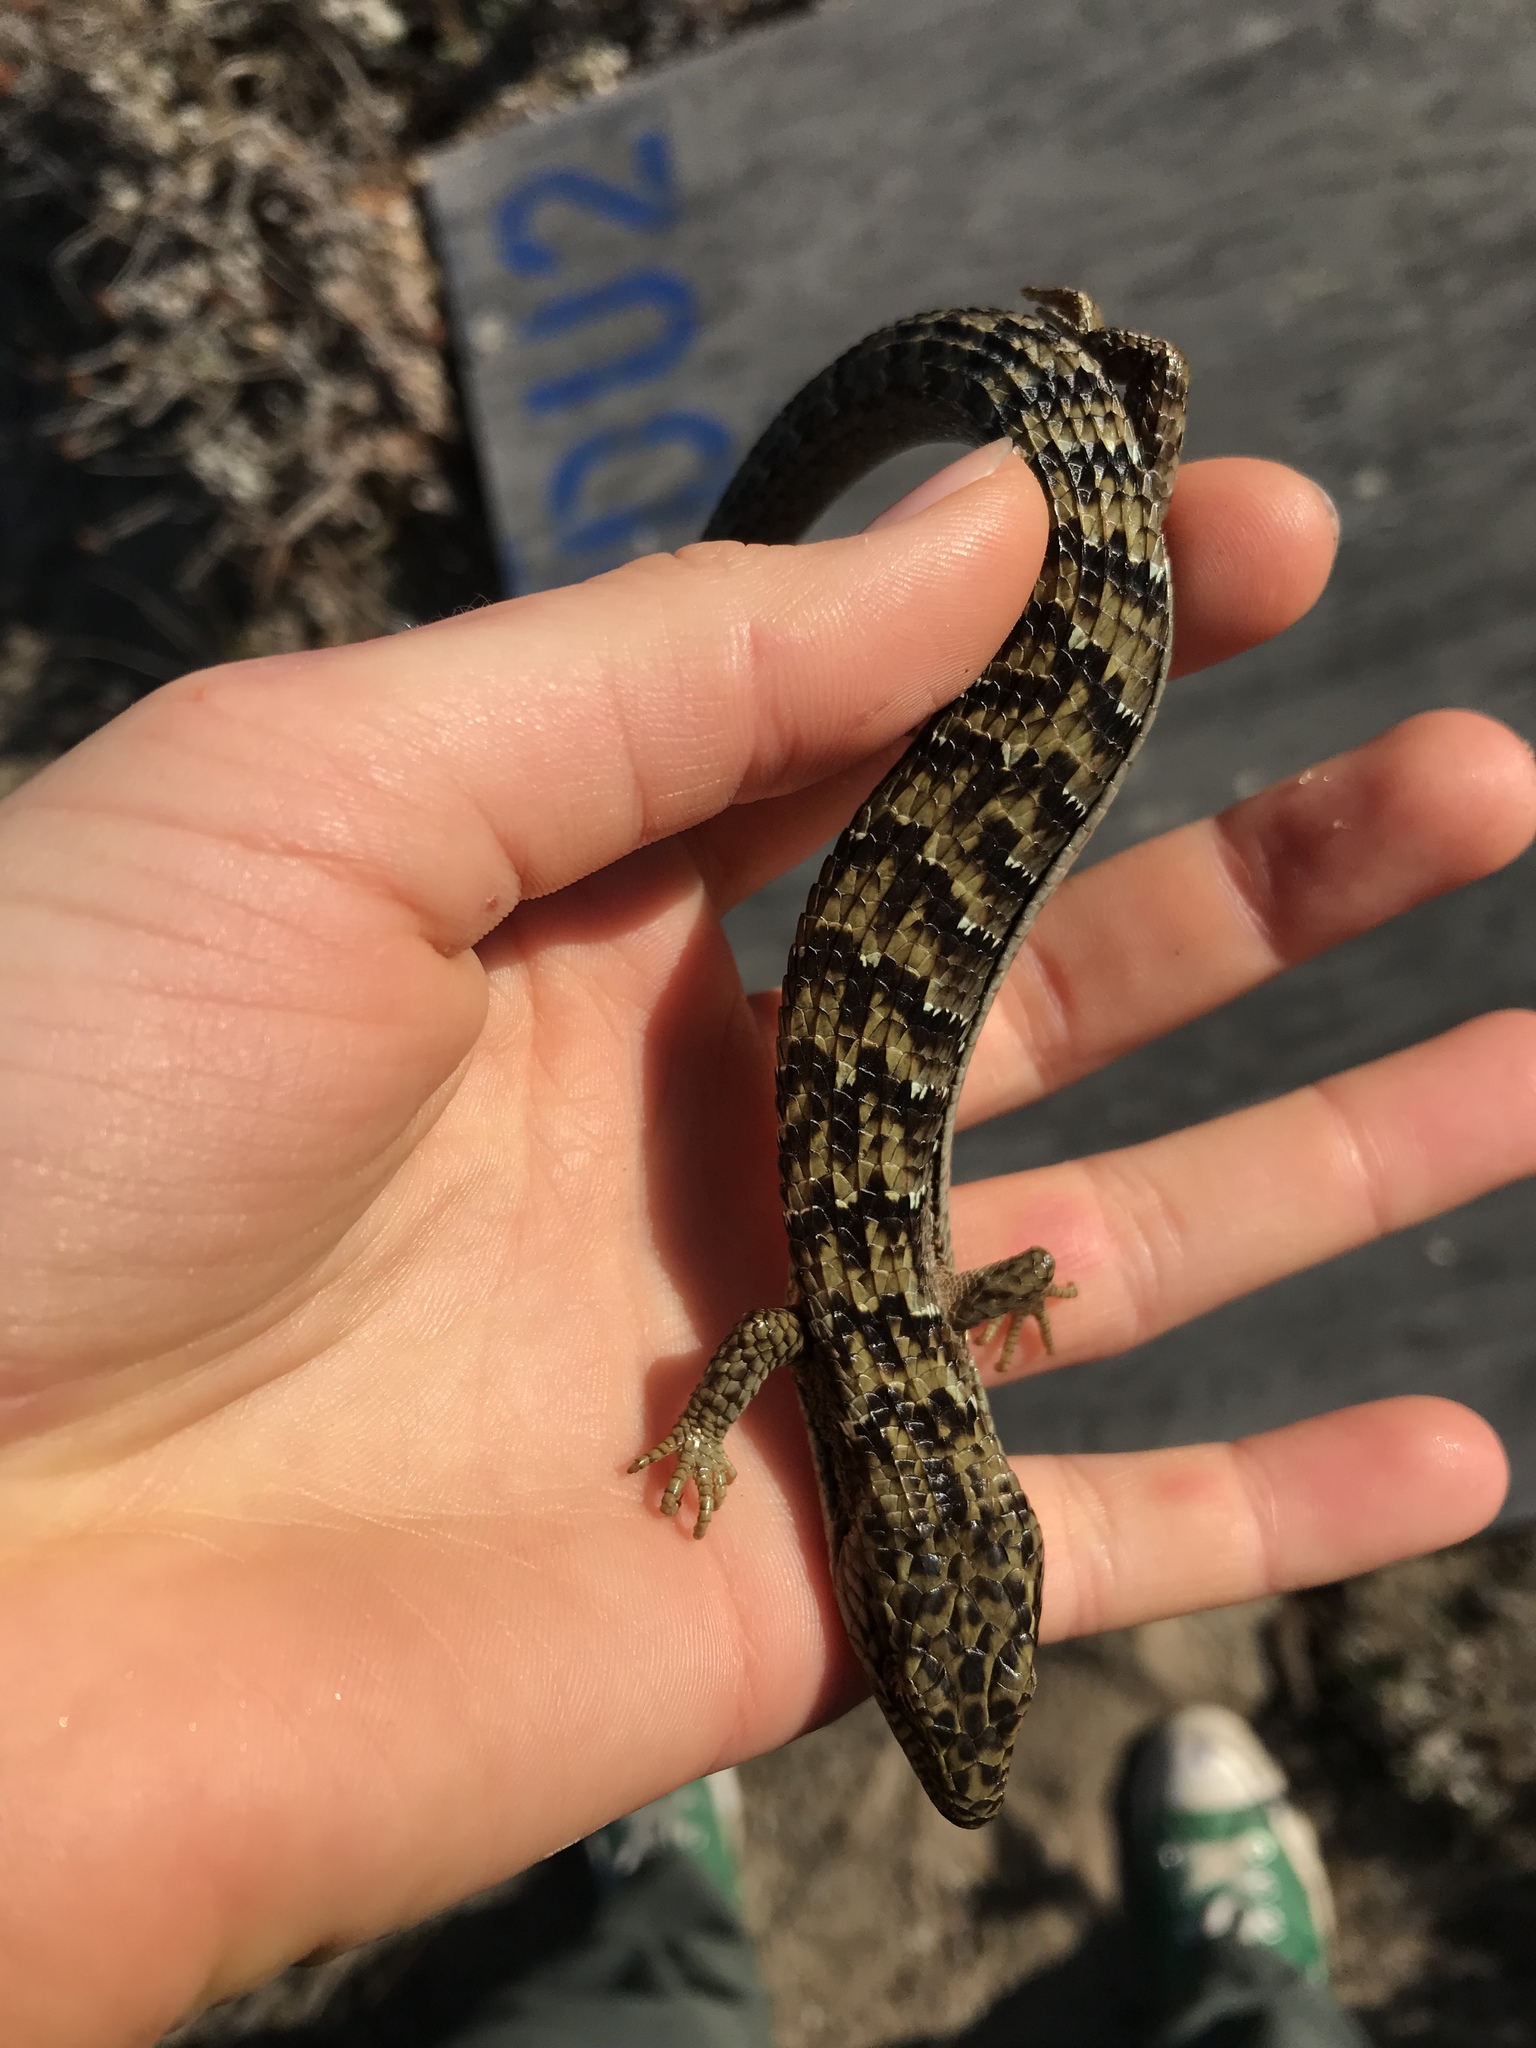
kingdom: Animalia
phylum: Chordata
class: Squamata
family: Anguidae
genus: Elgaria
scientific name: Elgaria multicarinata
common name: Southern alligator lizard
